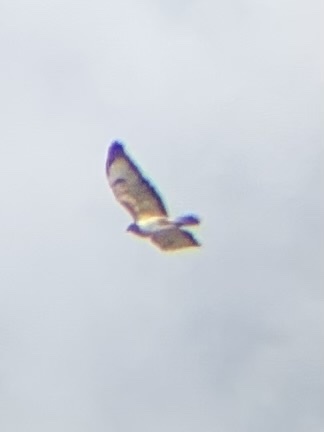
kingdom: Animalia
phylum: Chordata
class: Aves
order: Accipitriformes
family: Accipitridae
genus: Buteo
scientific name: Buteo buteo
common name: Common buzzard
